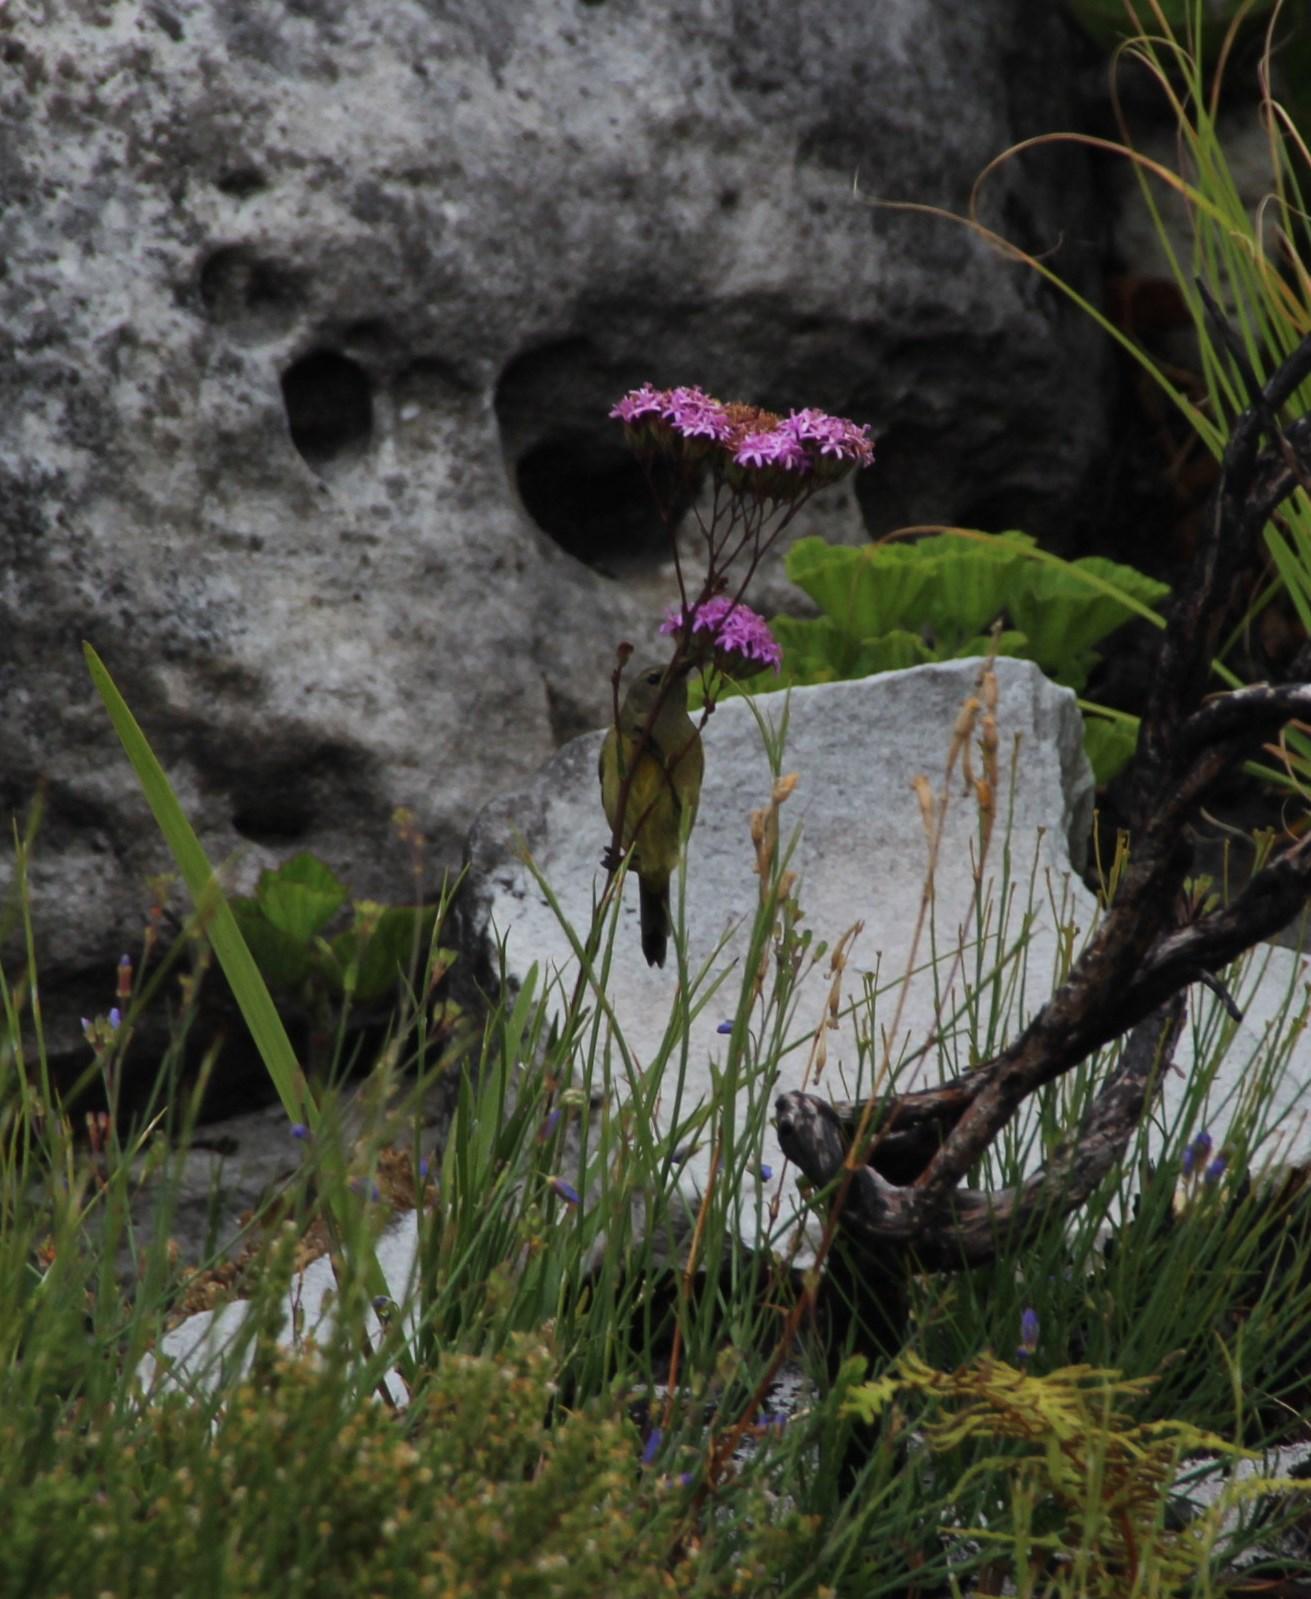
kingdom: Animalia
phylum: Chordata
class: Aves
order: Passeriformes
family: Nectariniidae
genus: Anthobaphes
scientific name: Anthobaphes violacea
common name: Orange-breasted sunbird
